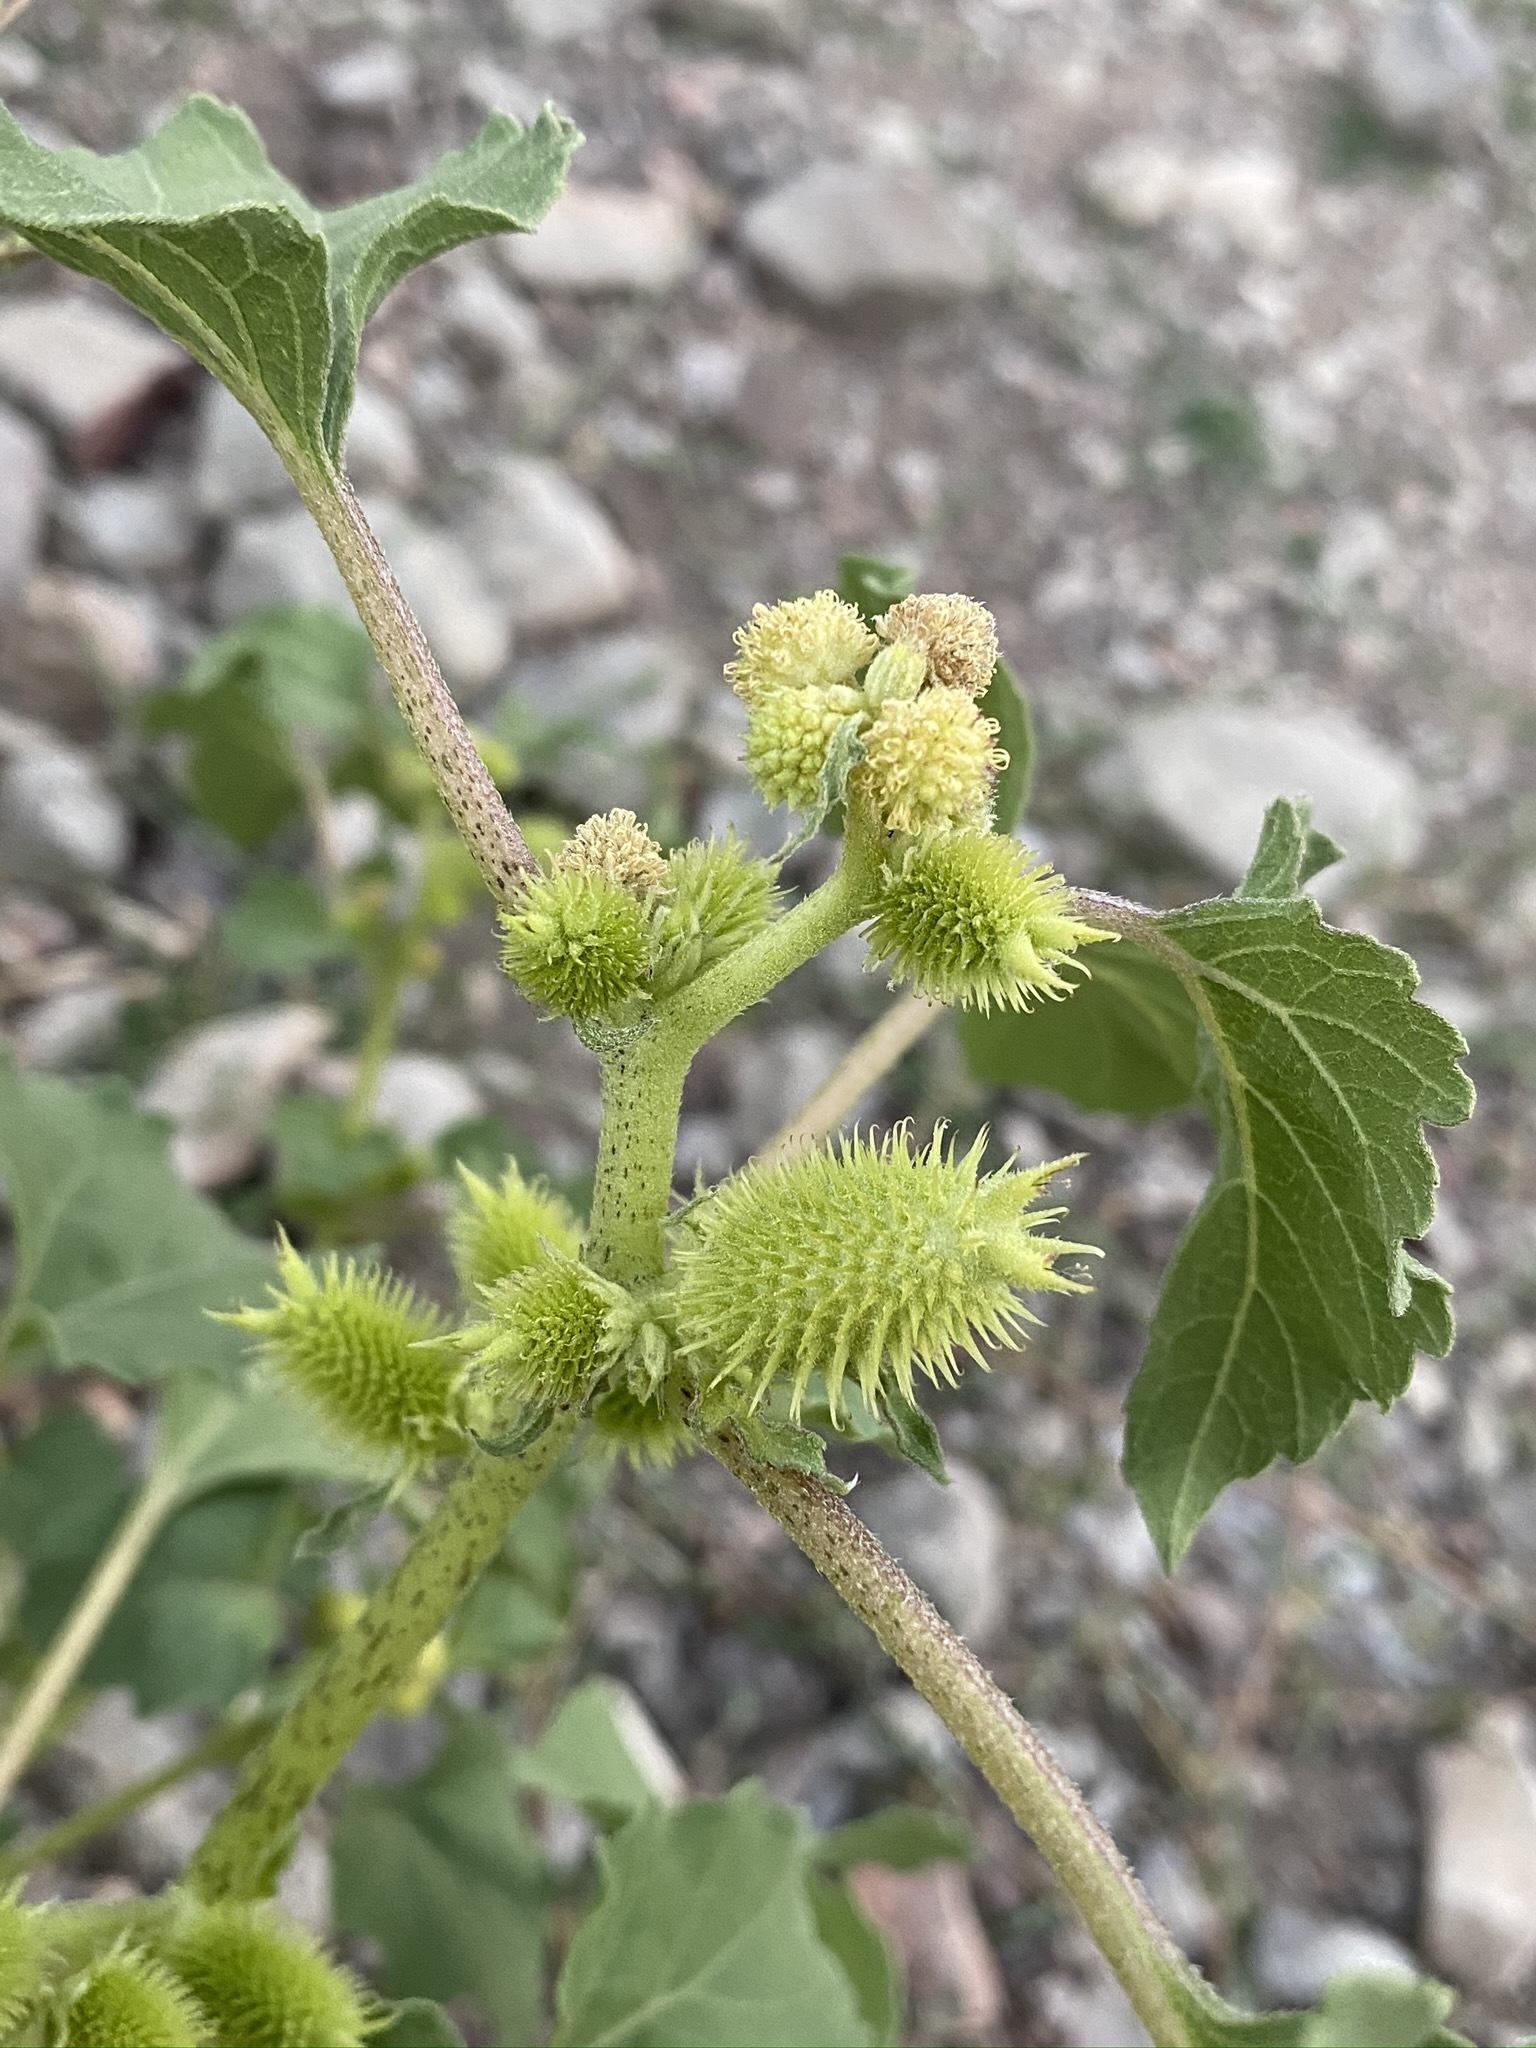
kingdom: Plantae
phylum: Tracheophyta
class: Magnoliopsida
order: Asterales
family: Asteraceae
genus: Xanthium
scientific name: Xanthium strumarium
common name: Rough cocklebur
